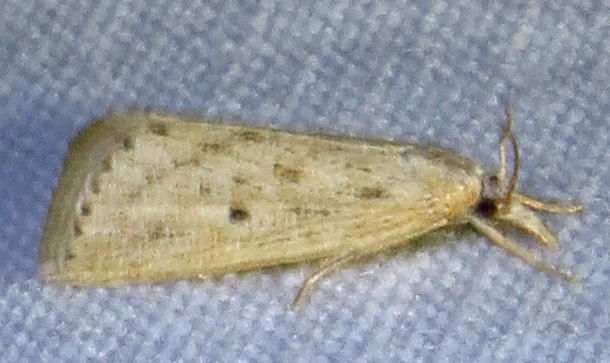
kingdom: Animalia
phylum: Arthropoda
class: Insecta
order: Lepidoptera
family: Crambidae
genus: Diatraea
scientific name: Diatraea lisetta
